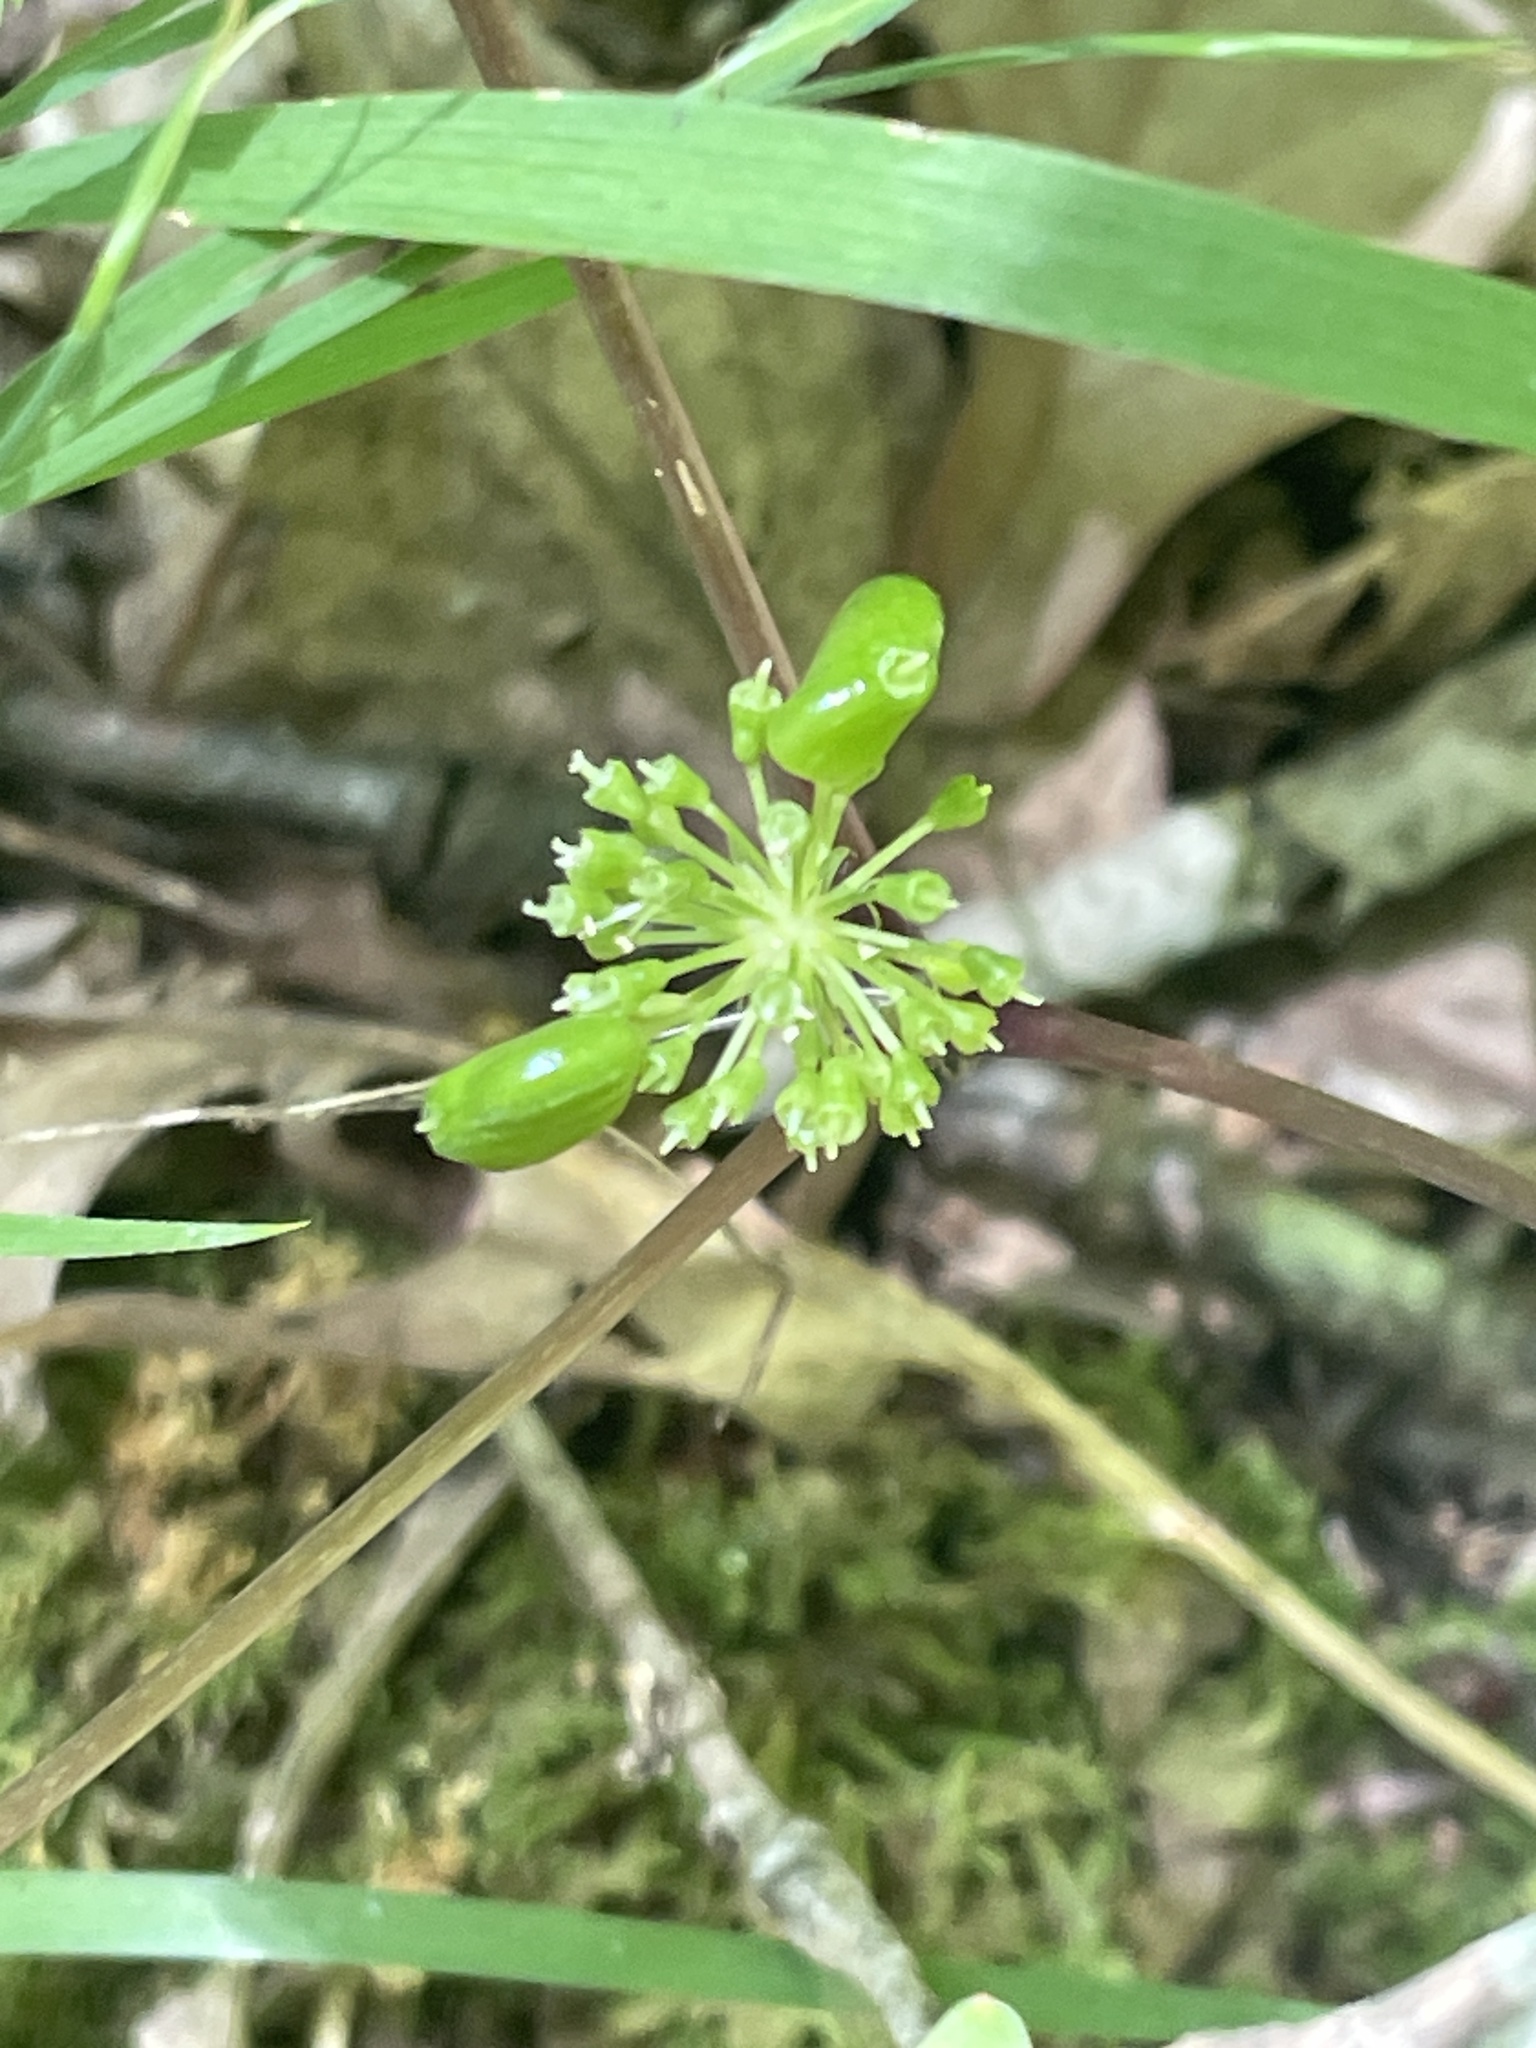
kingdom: Plantae
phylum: Tracheophyta
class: Magnoliopsida
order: Apiales
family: Araliaceae
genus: Panax
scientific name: Panax quinquefolius
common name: American ginseng
